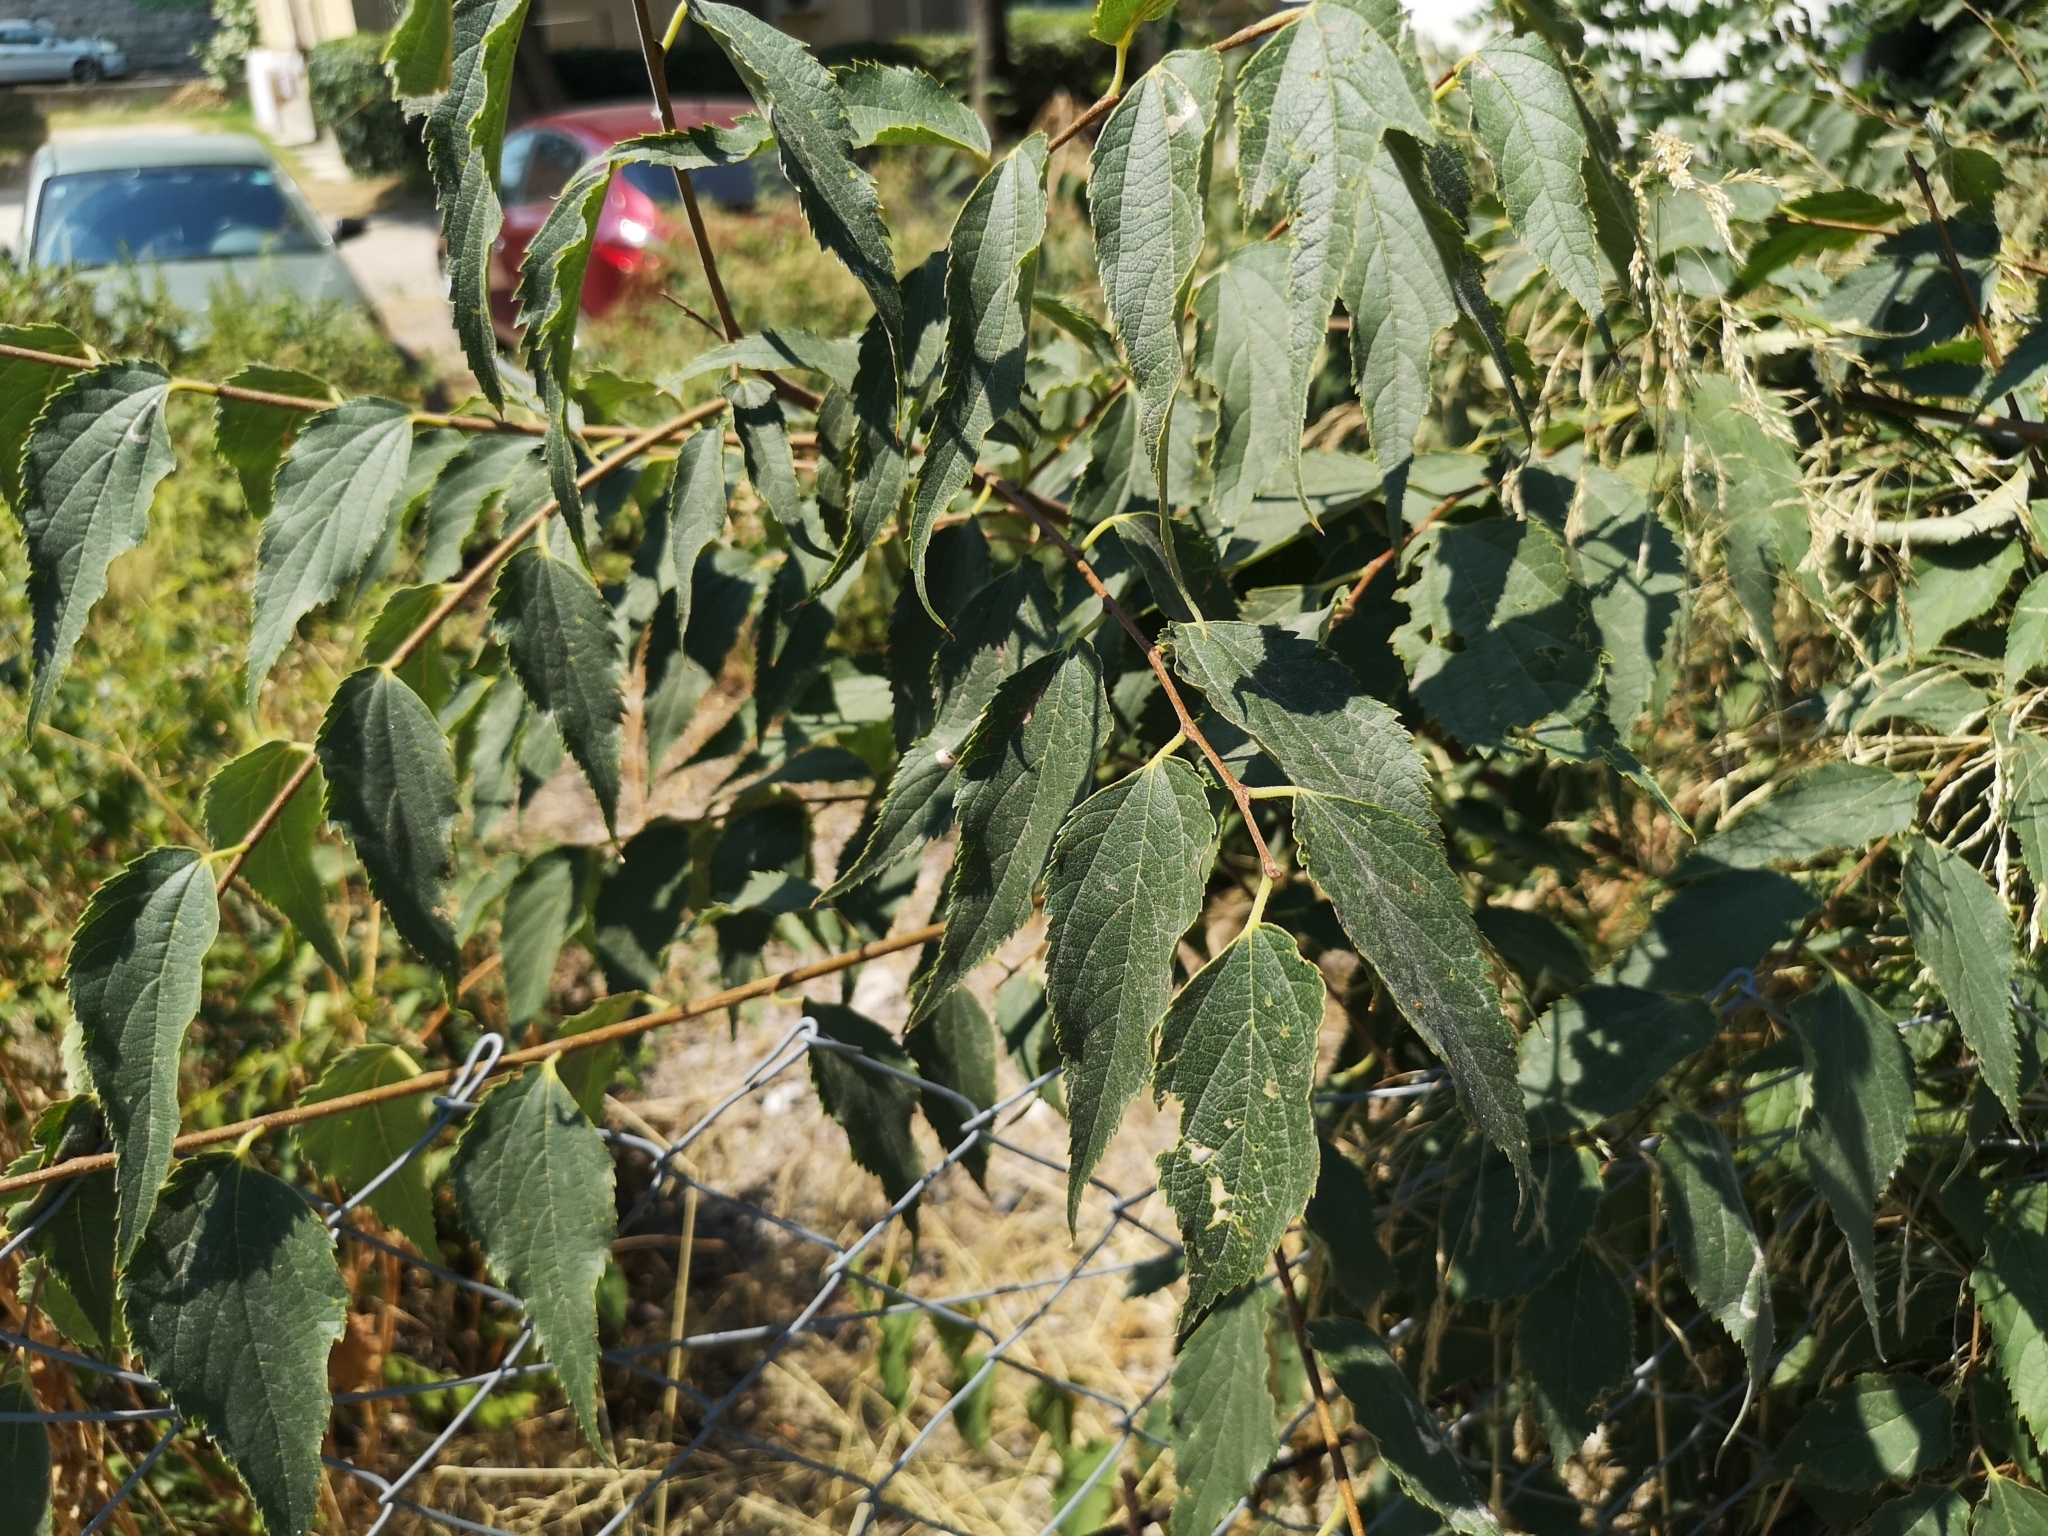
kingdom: Plantae
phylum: Tracheophyta
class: Magnoliopsida
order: Rosales
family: Cannabaceae
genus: Celtis
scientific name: Celtis australis
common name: European hackberry
